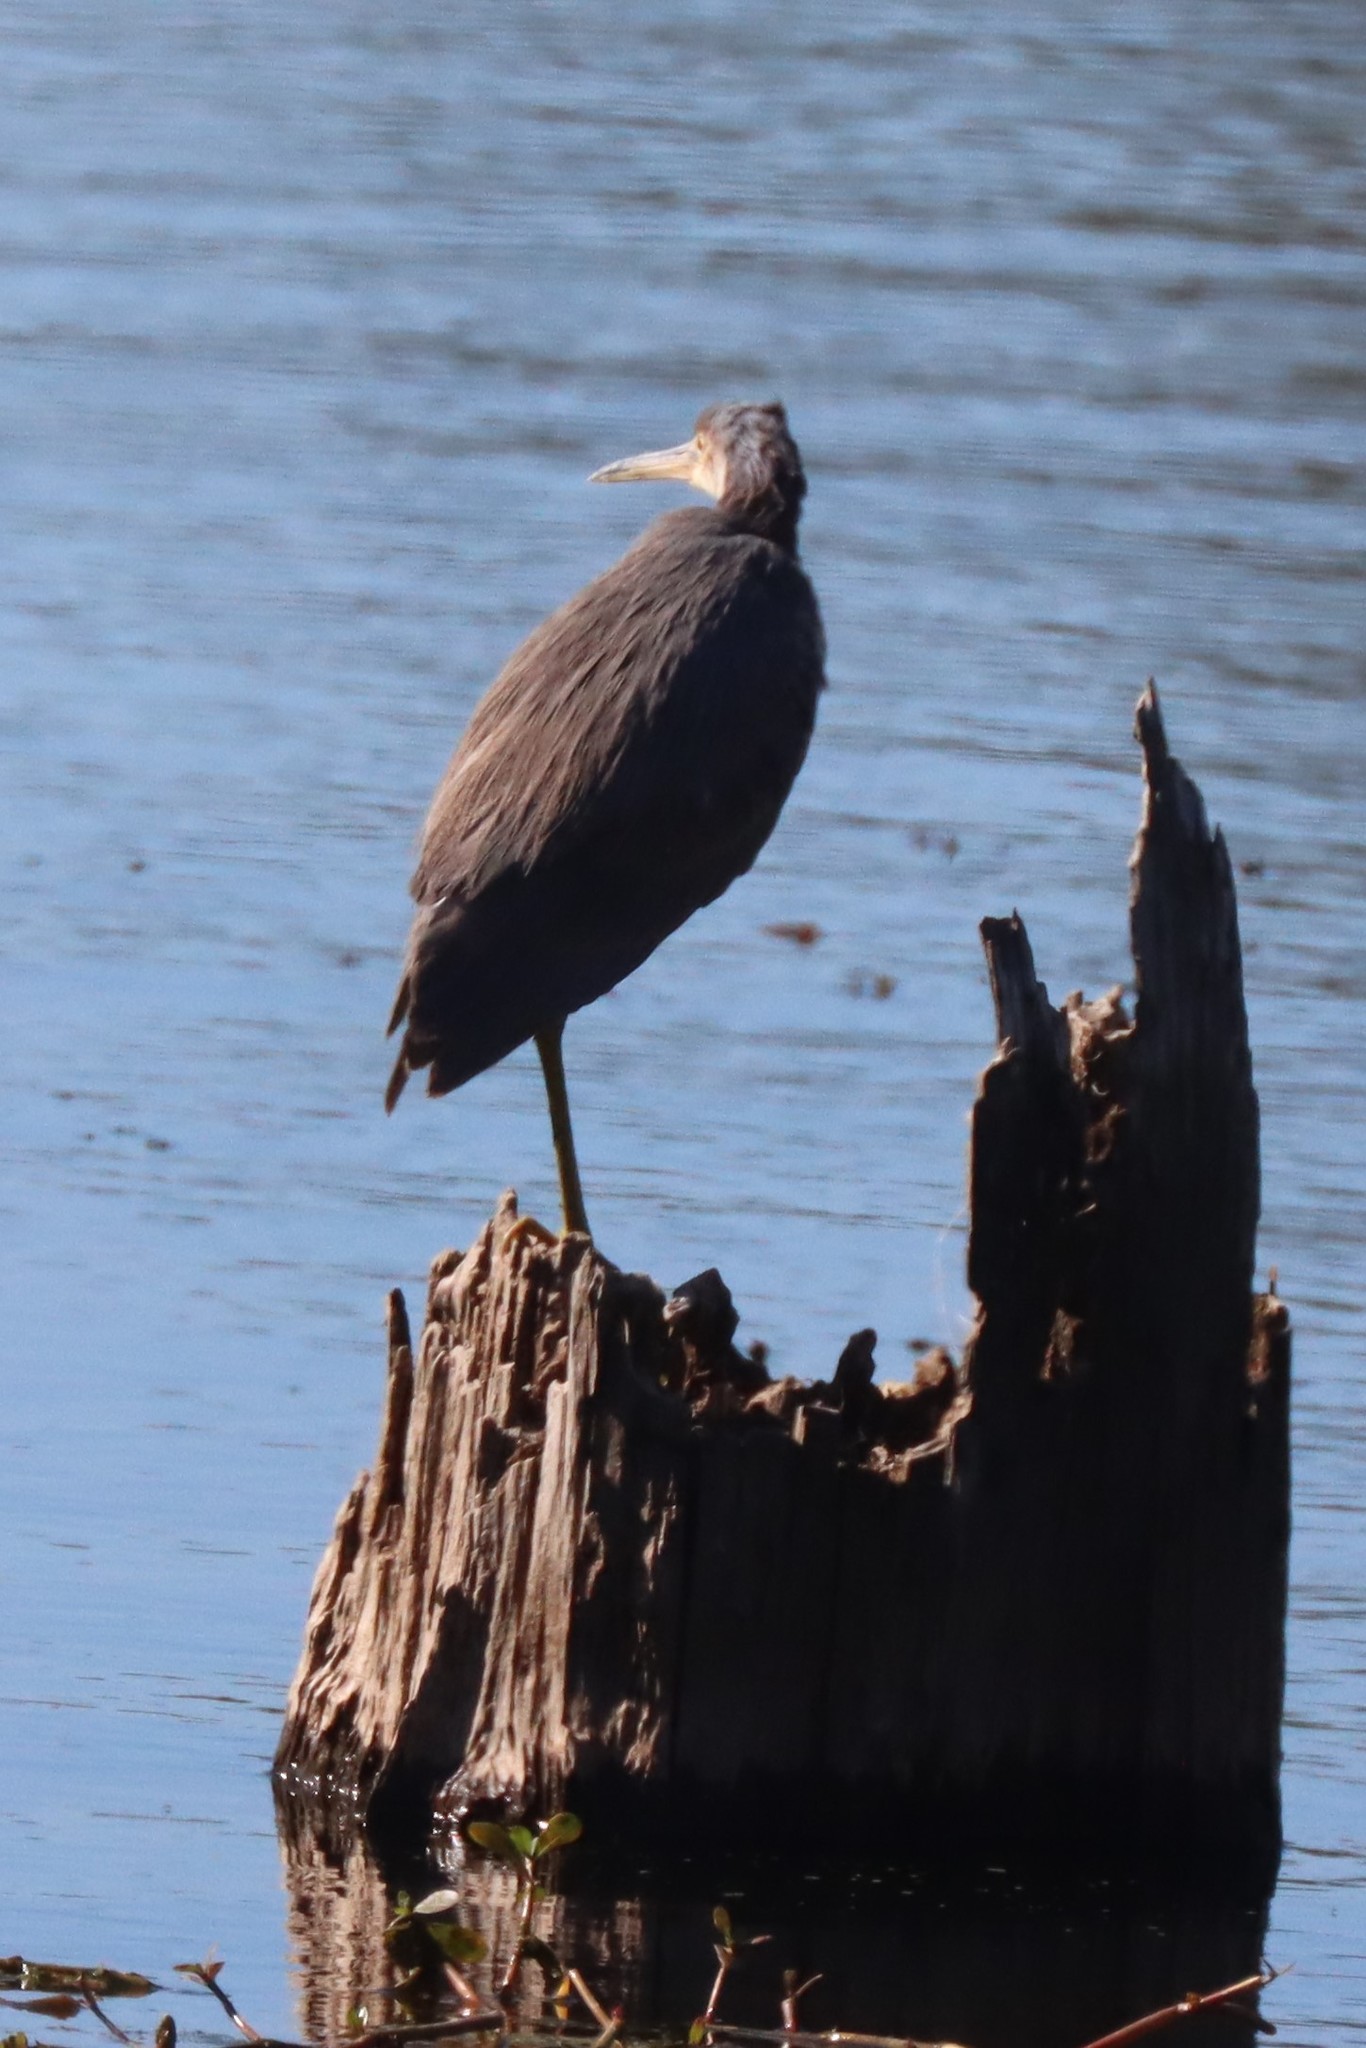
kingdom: Animalia
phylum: Chordata
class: Aves
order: Pelecaniformes
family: Ardeidae
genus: Egretta
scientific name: Egretta tricolor
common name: Tricolored heron
